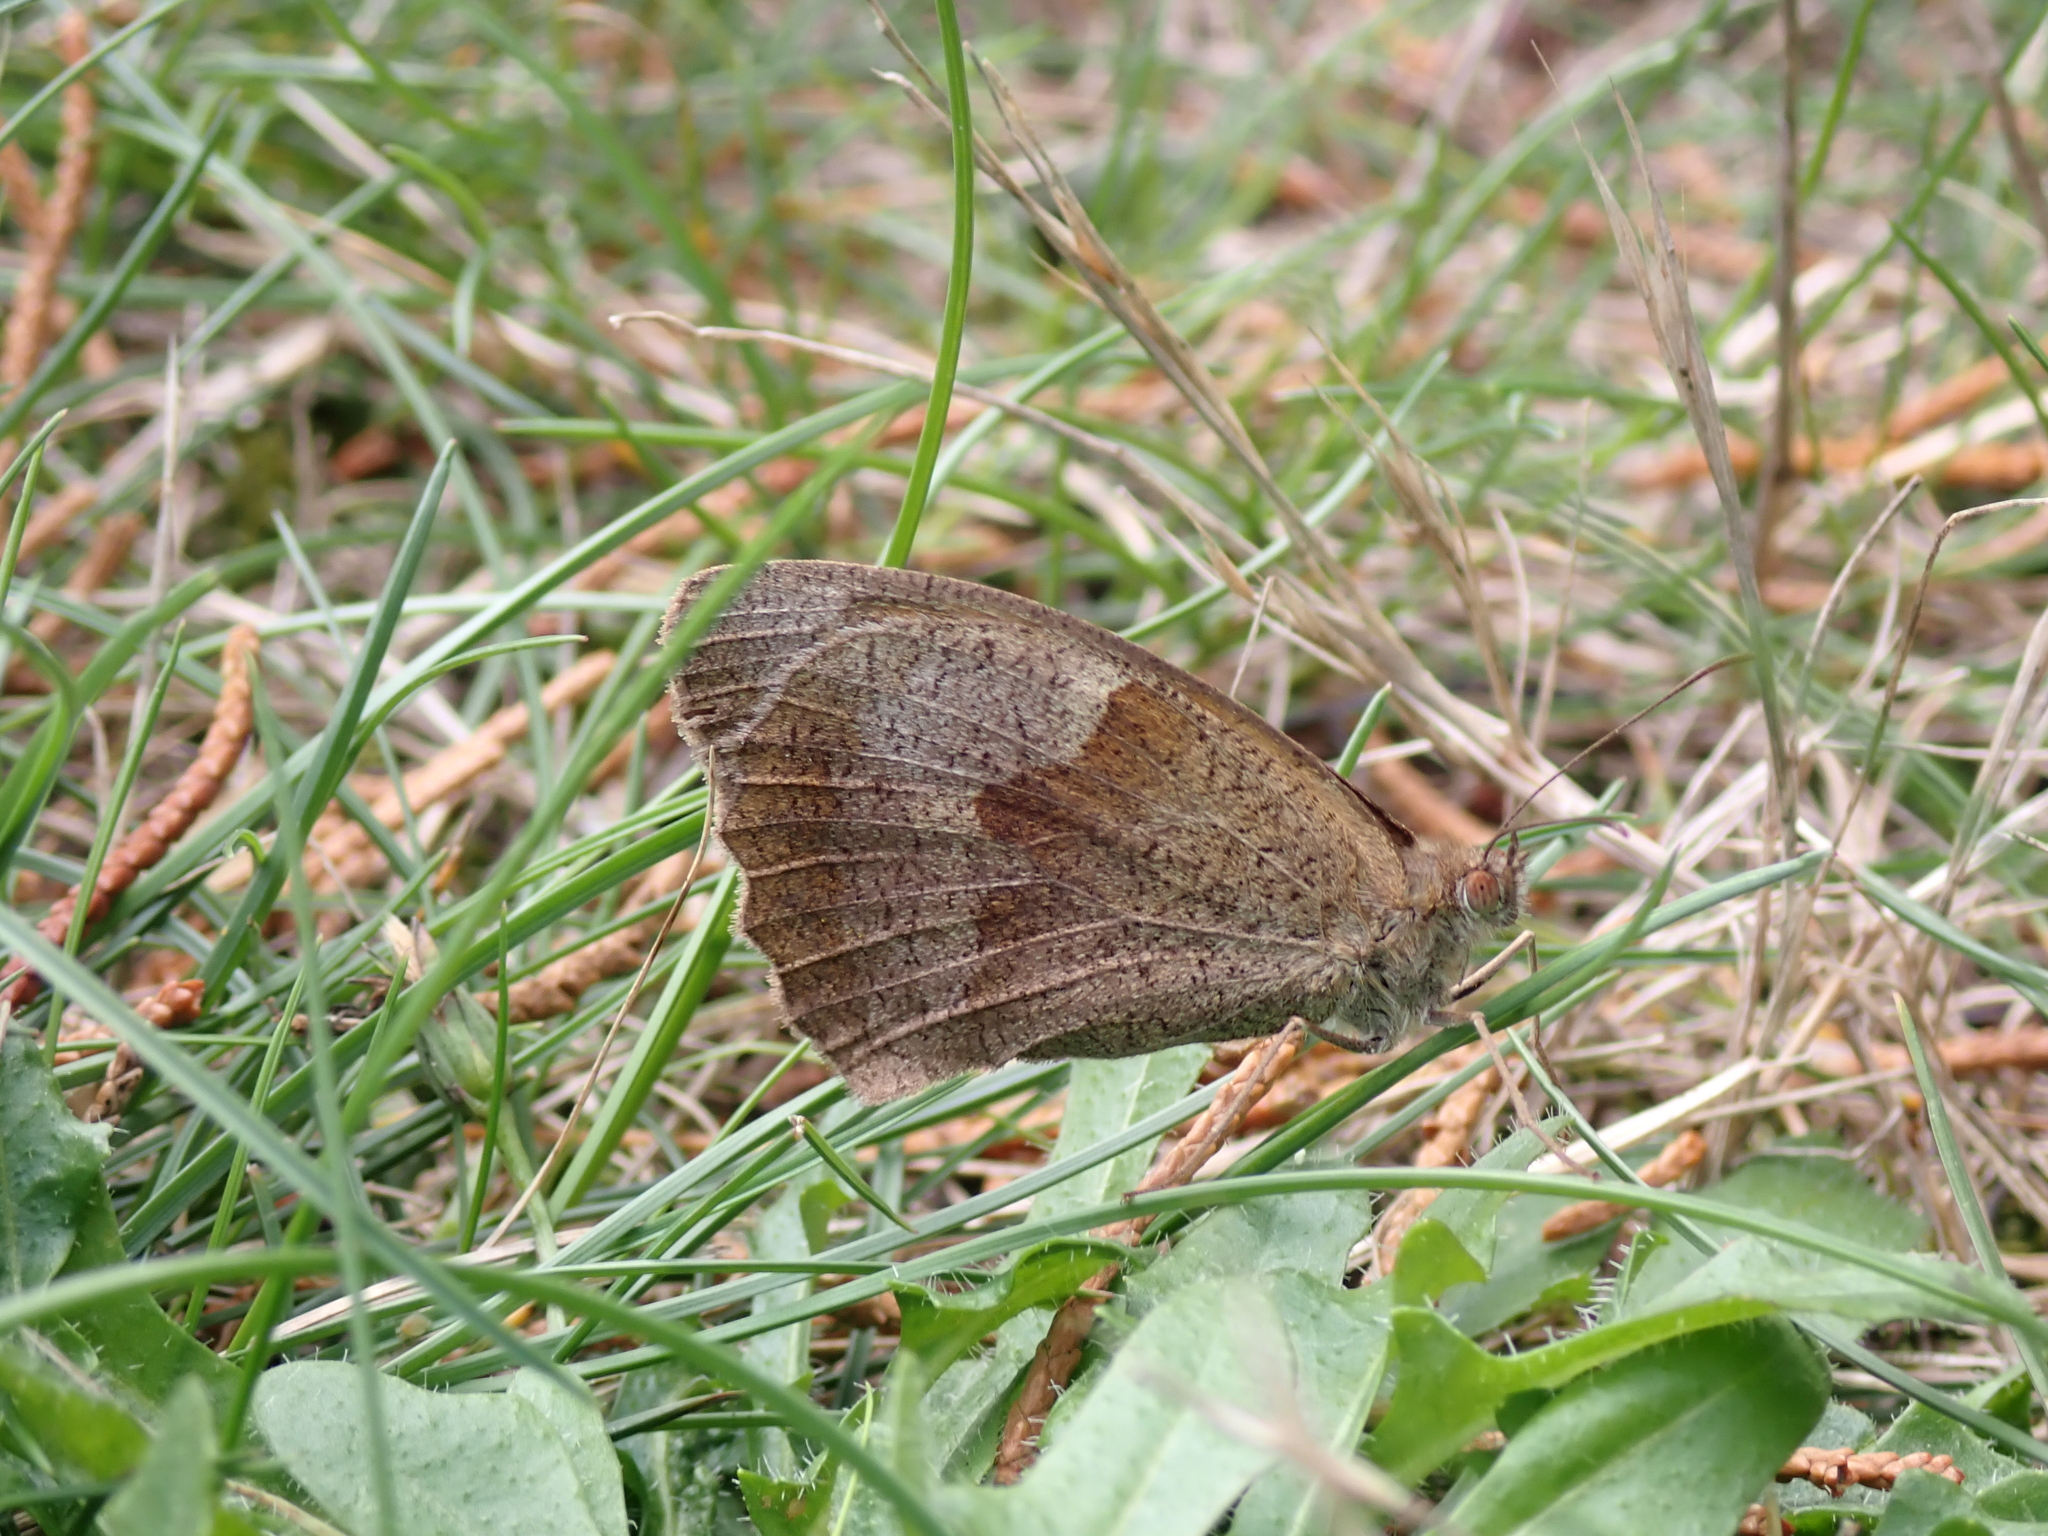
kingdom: Animalia
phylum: Arthropoda
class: Insecta
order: Lepidoptera
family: Nymphalidae
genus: Maniola
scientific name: Maniola jurtina
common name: Meadow brown
